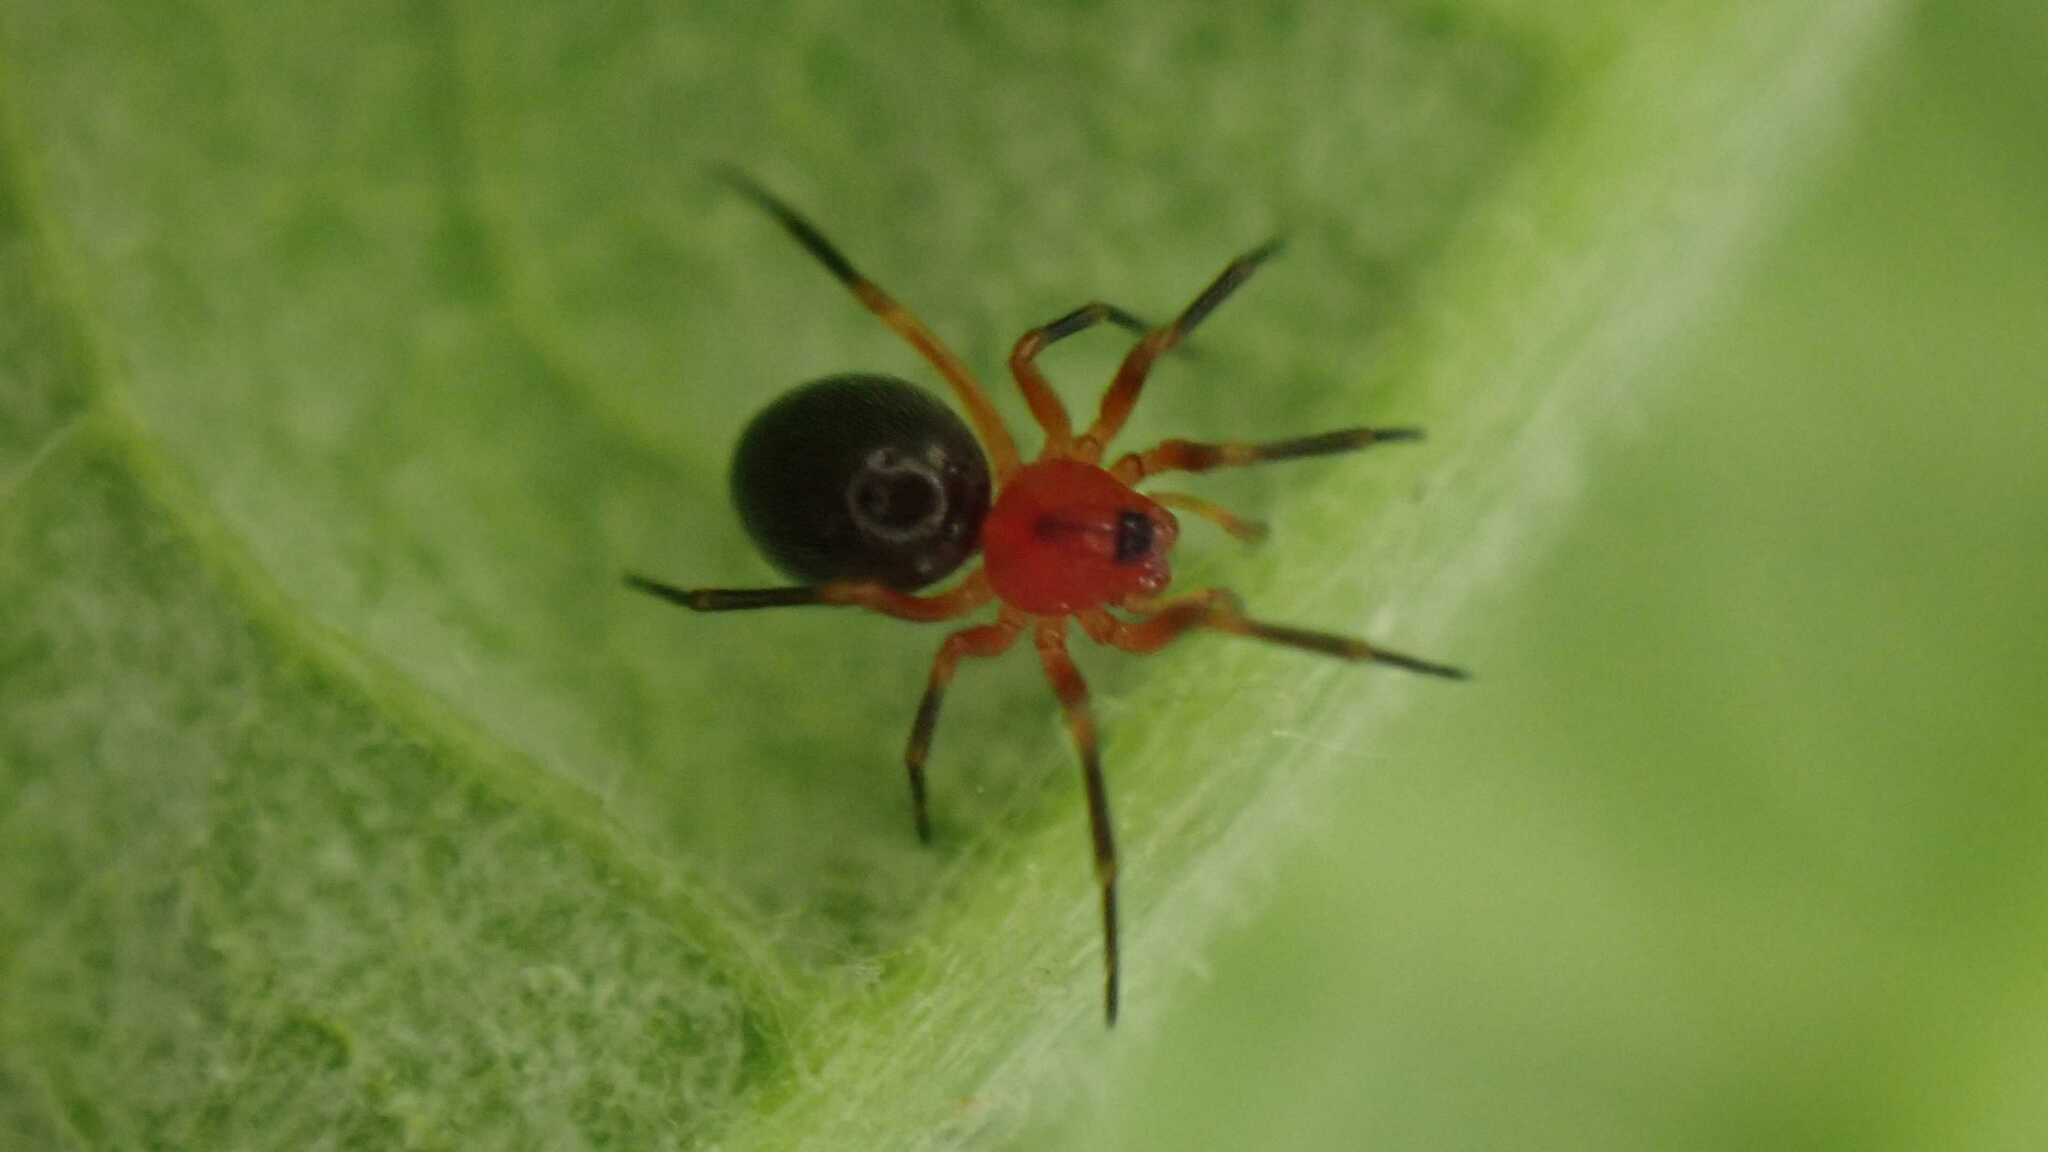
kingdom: Animalia
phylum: Arthropoda
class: Arachnida
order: Araneae
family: Linyphiidae
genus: Trematocephalus
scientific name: Trematocephalus cristatus
